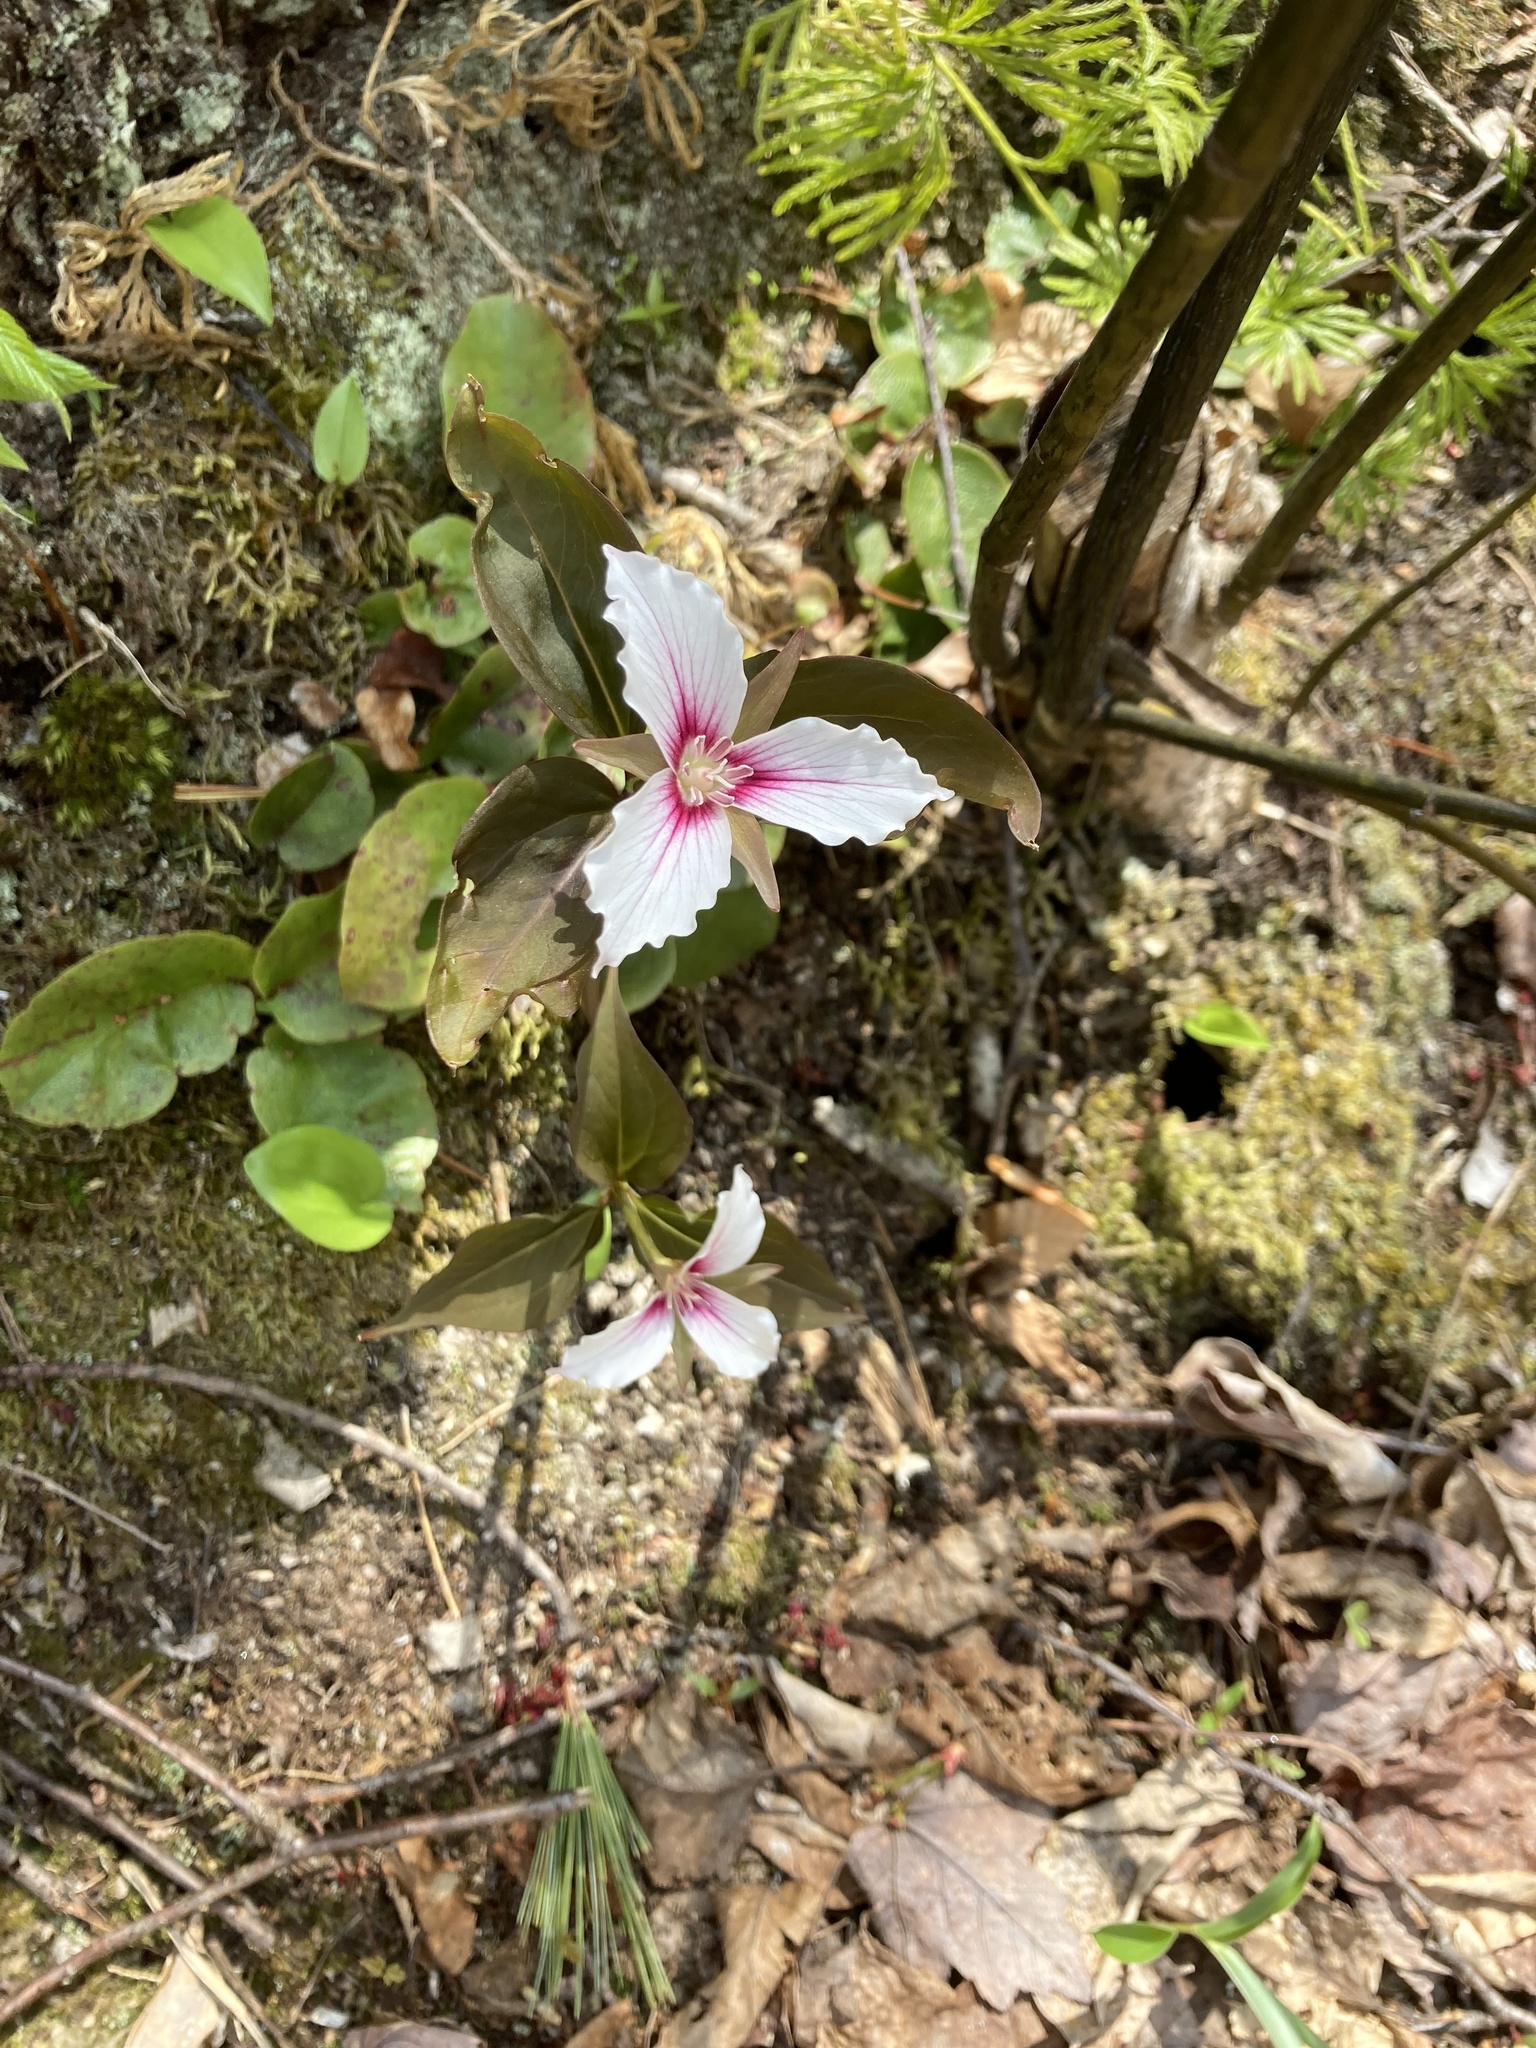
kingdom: Plantae
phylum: Tracheophyta
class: Liliopsida
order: Liliales
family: Melanthiaceae
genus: Trillium
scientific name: Trillium undulatum
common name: Paint trillium
